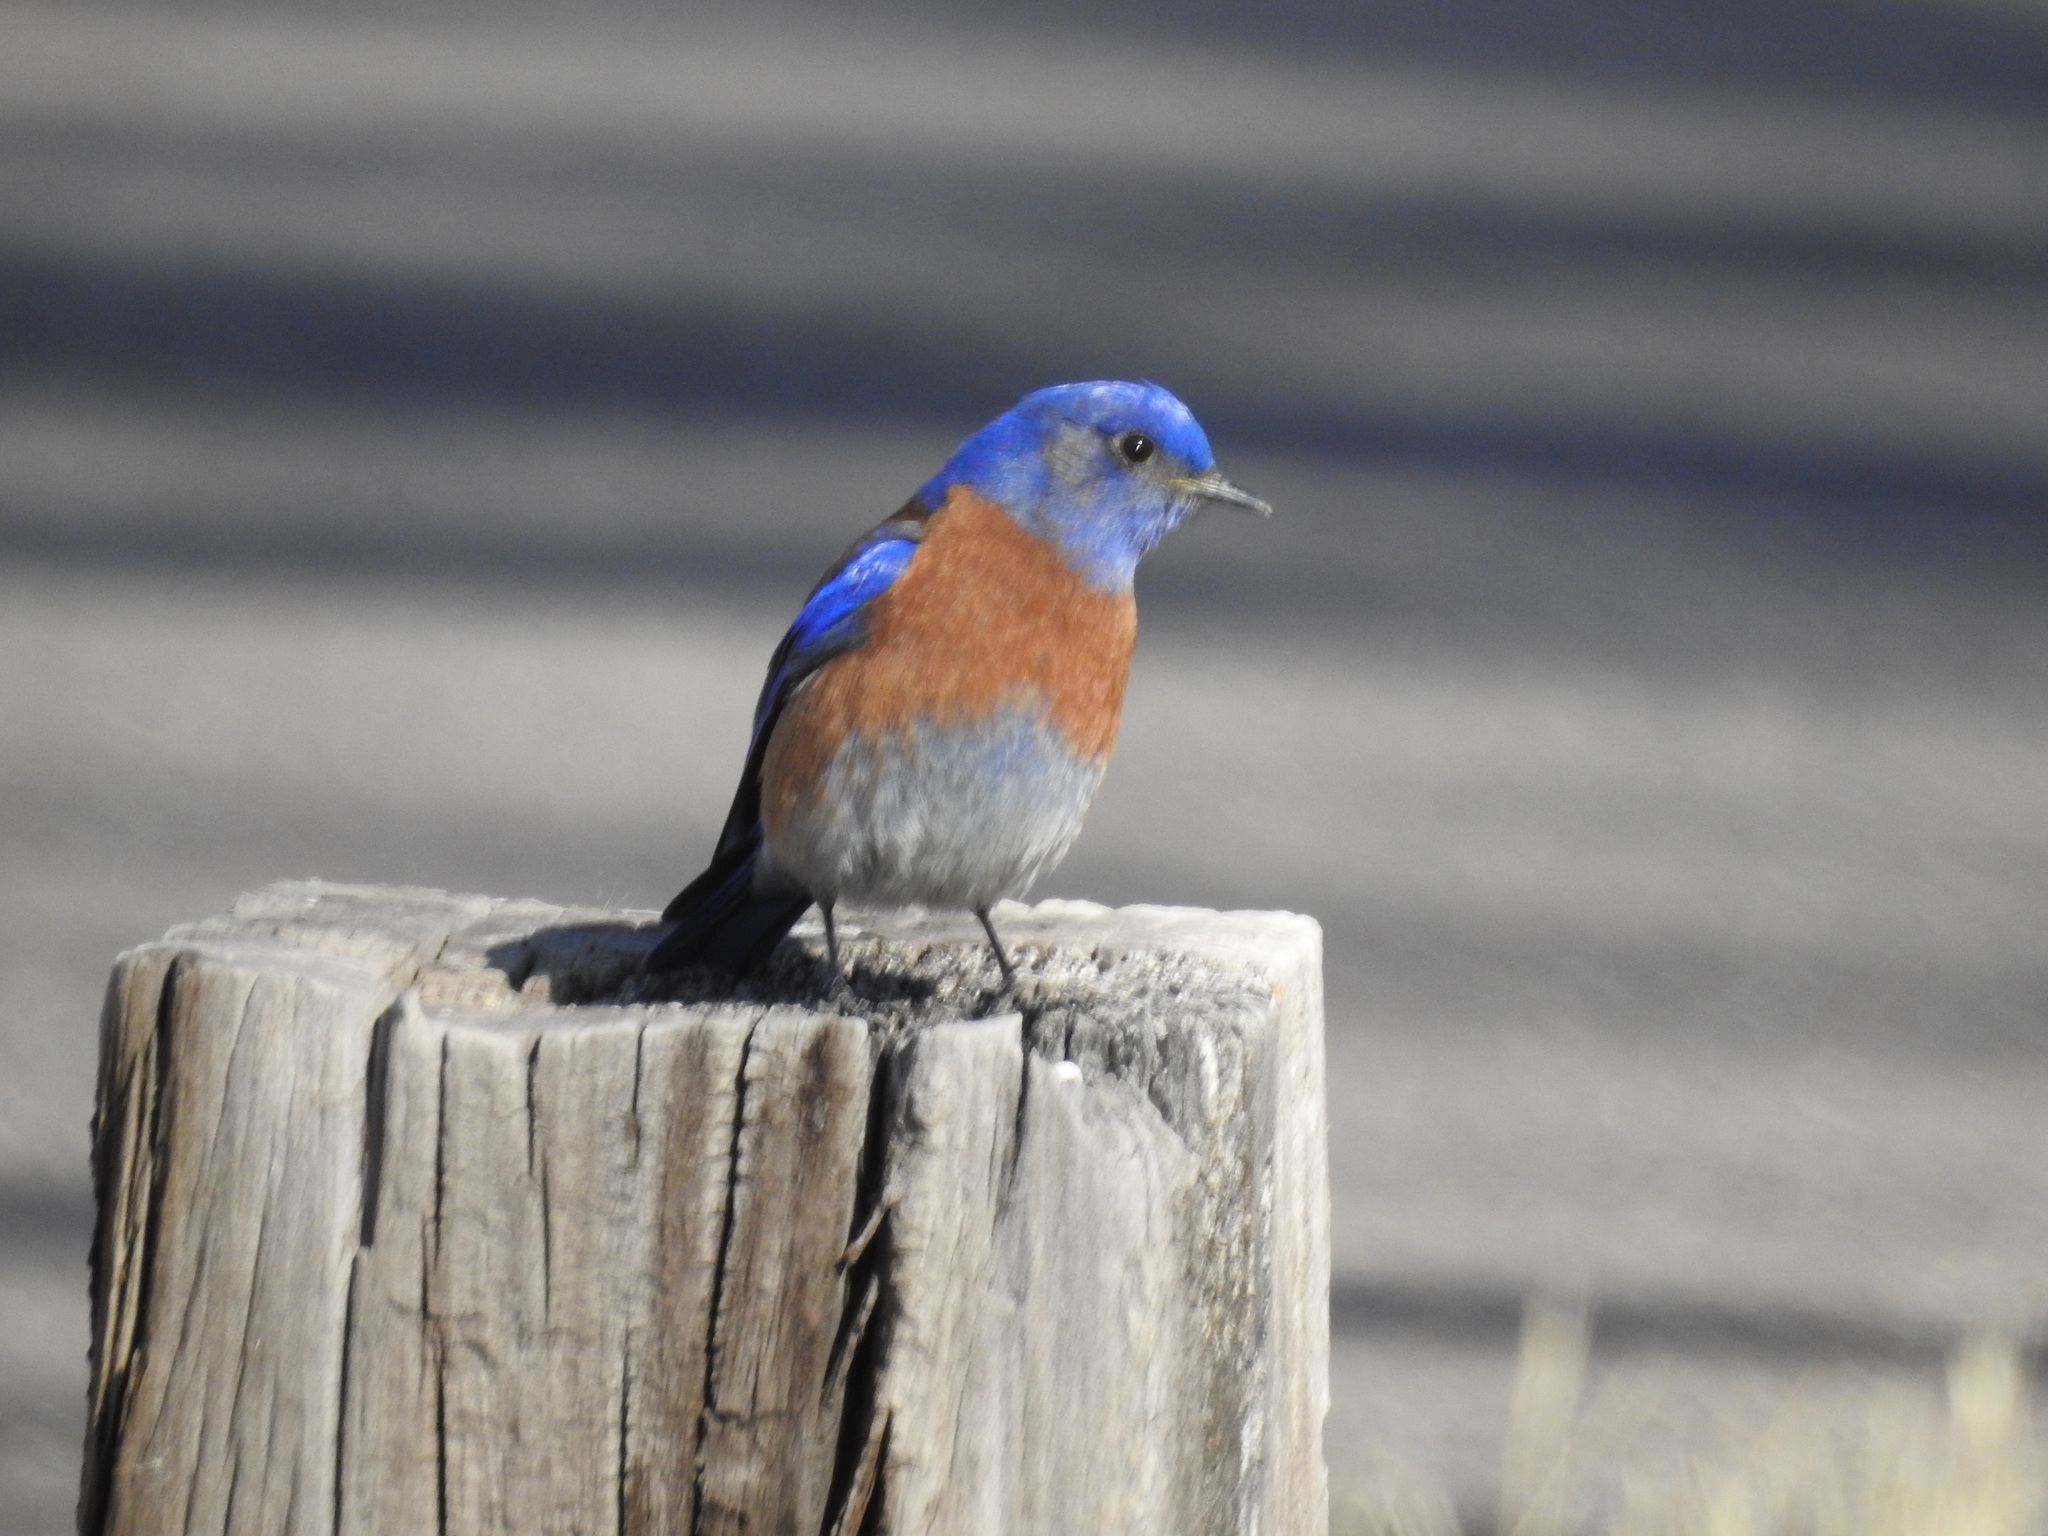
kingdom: Animalia
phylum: Chordata
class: Aves
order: Passeriformes
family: Turdidae
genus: Sialia
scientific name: Sialia mexicana
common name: Western bluebird
